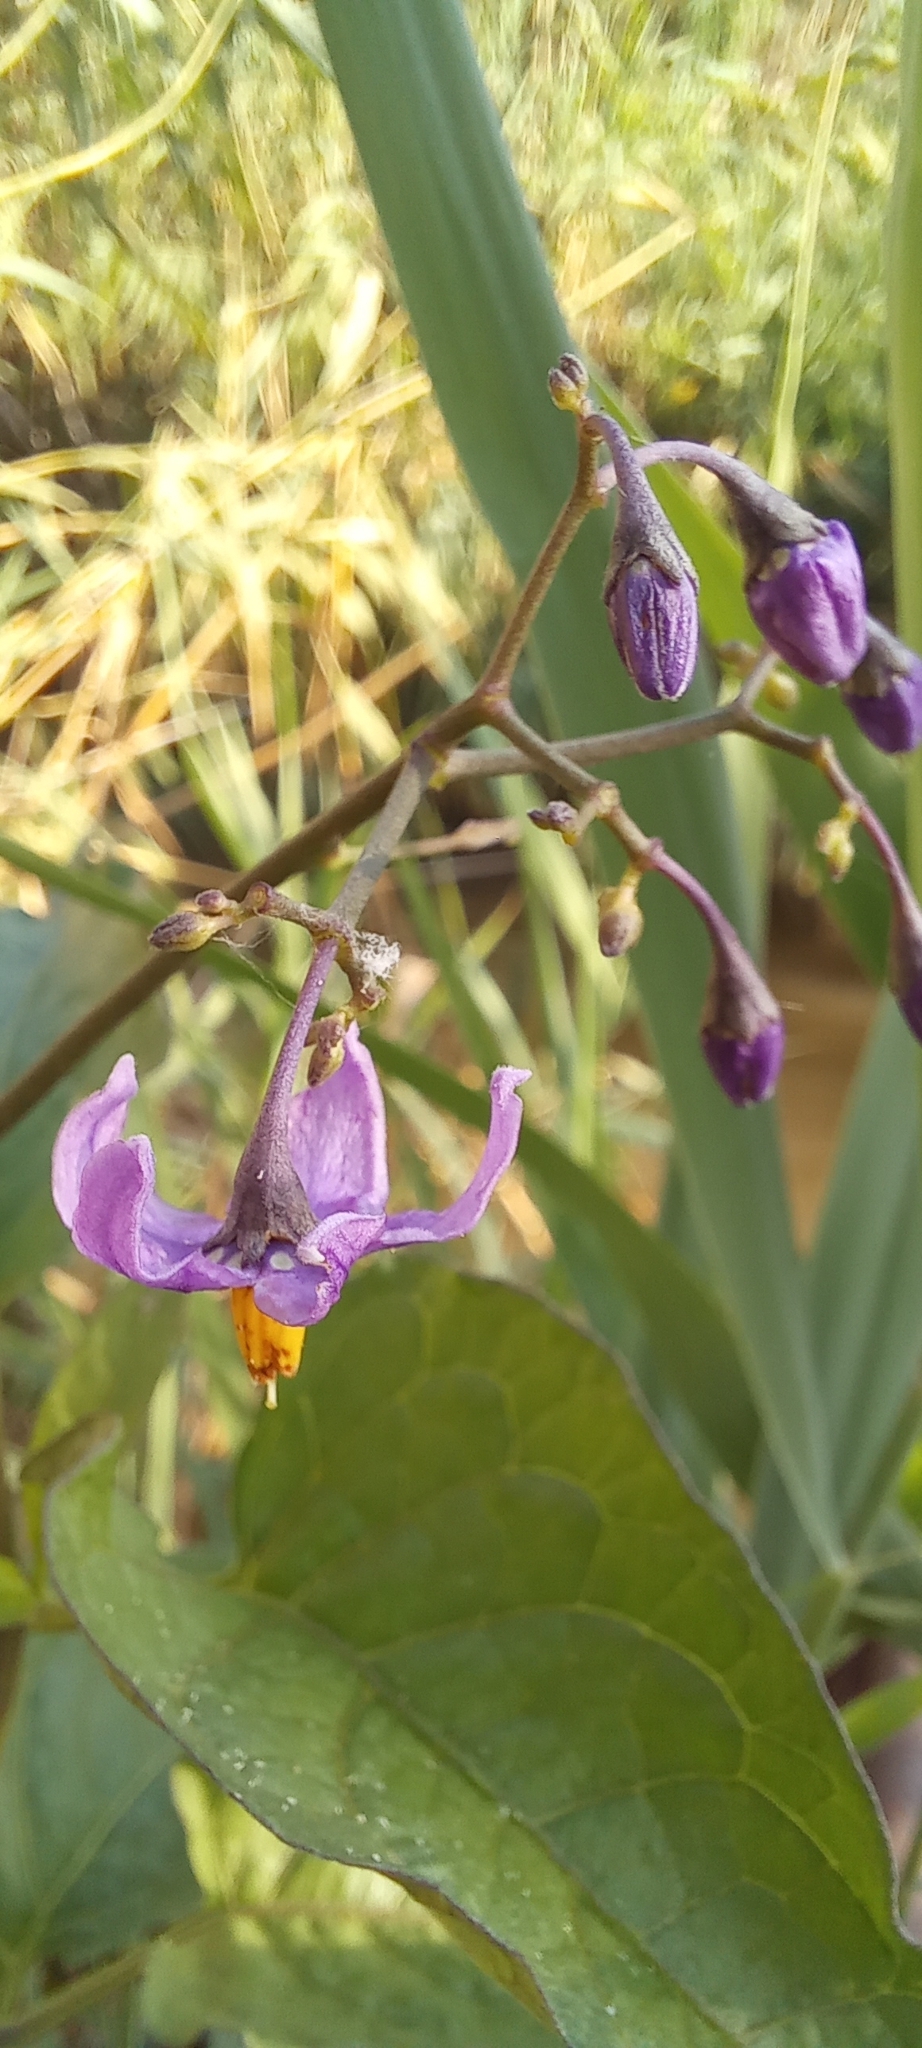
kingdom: Plantae
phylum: Tracheophyta
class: Magnoliopsida
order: Solanales
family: Solanaceae
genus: Solanum
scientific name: Solanum dulcamara
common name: Climbing nightshade
